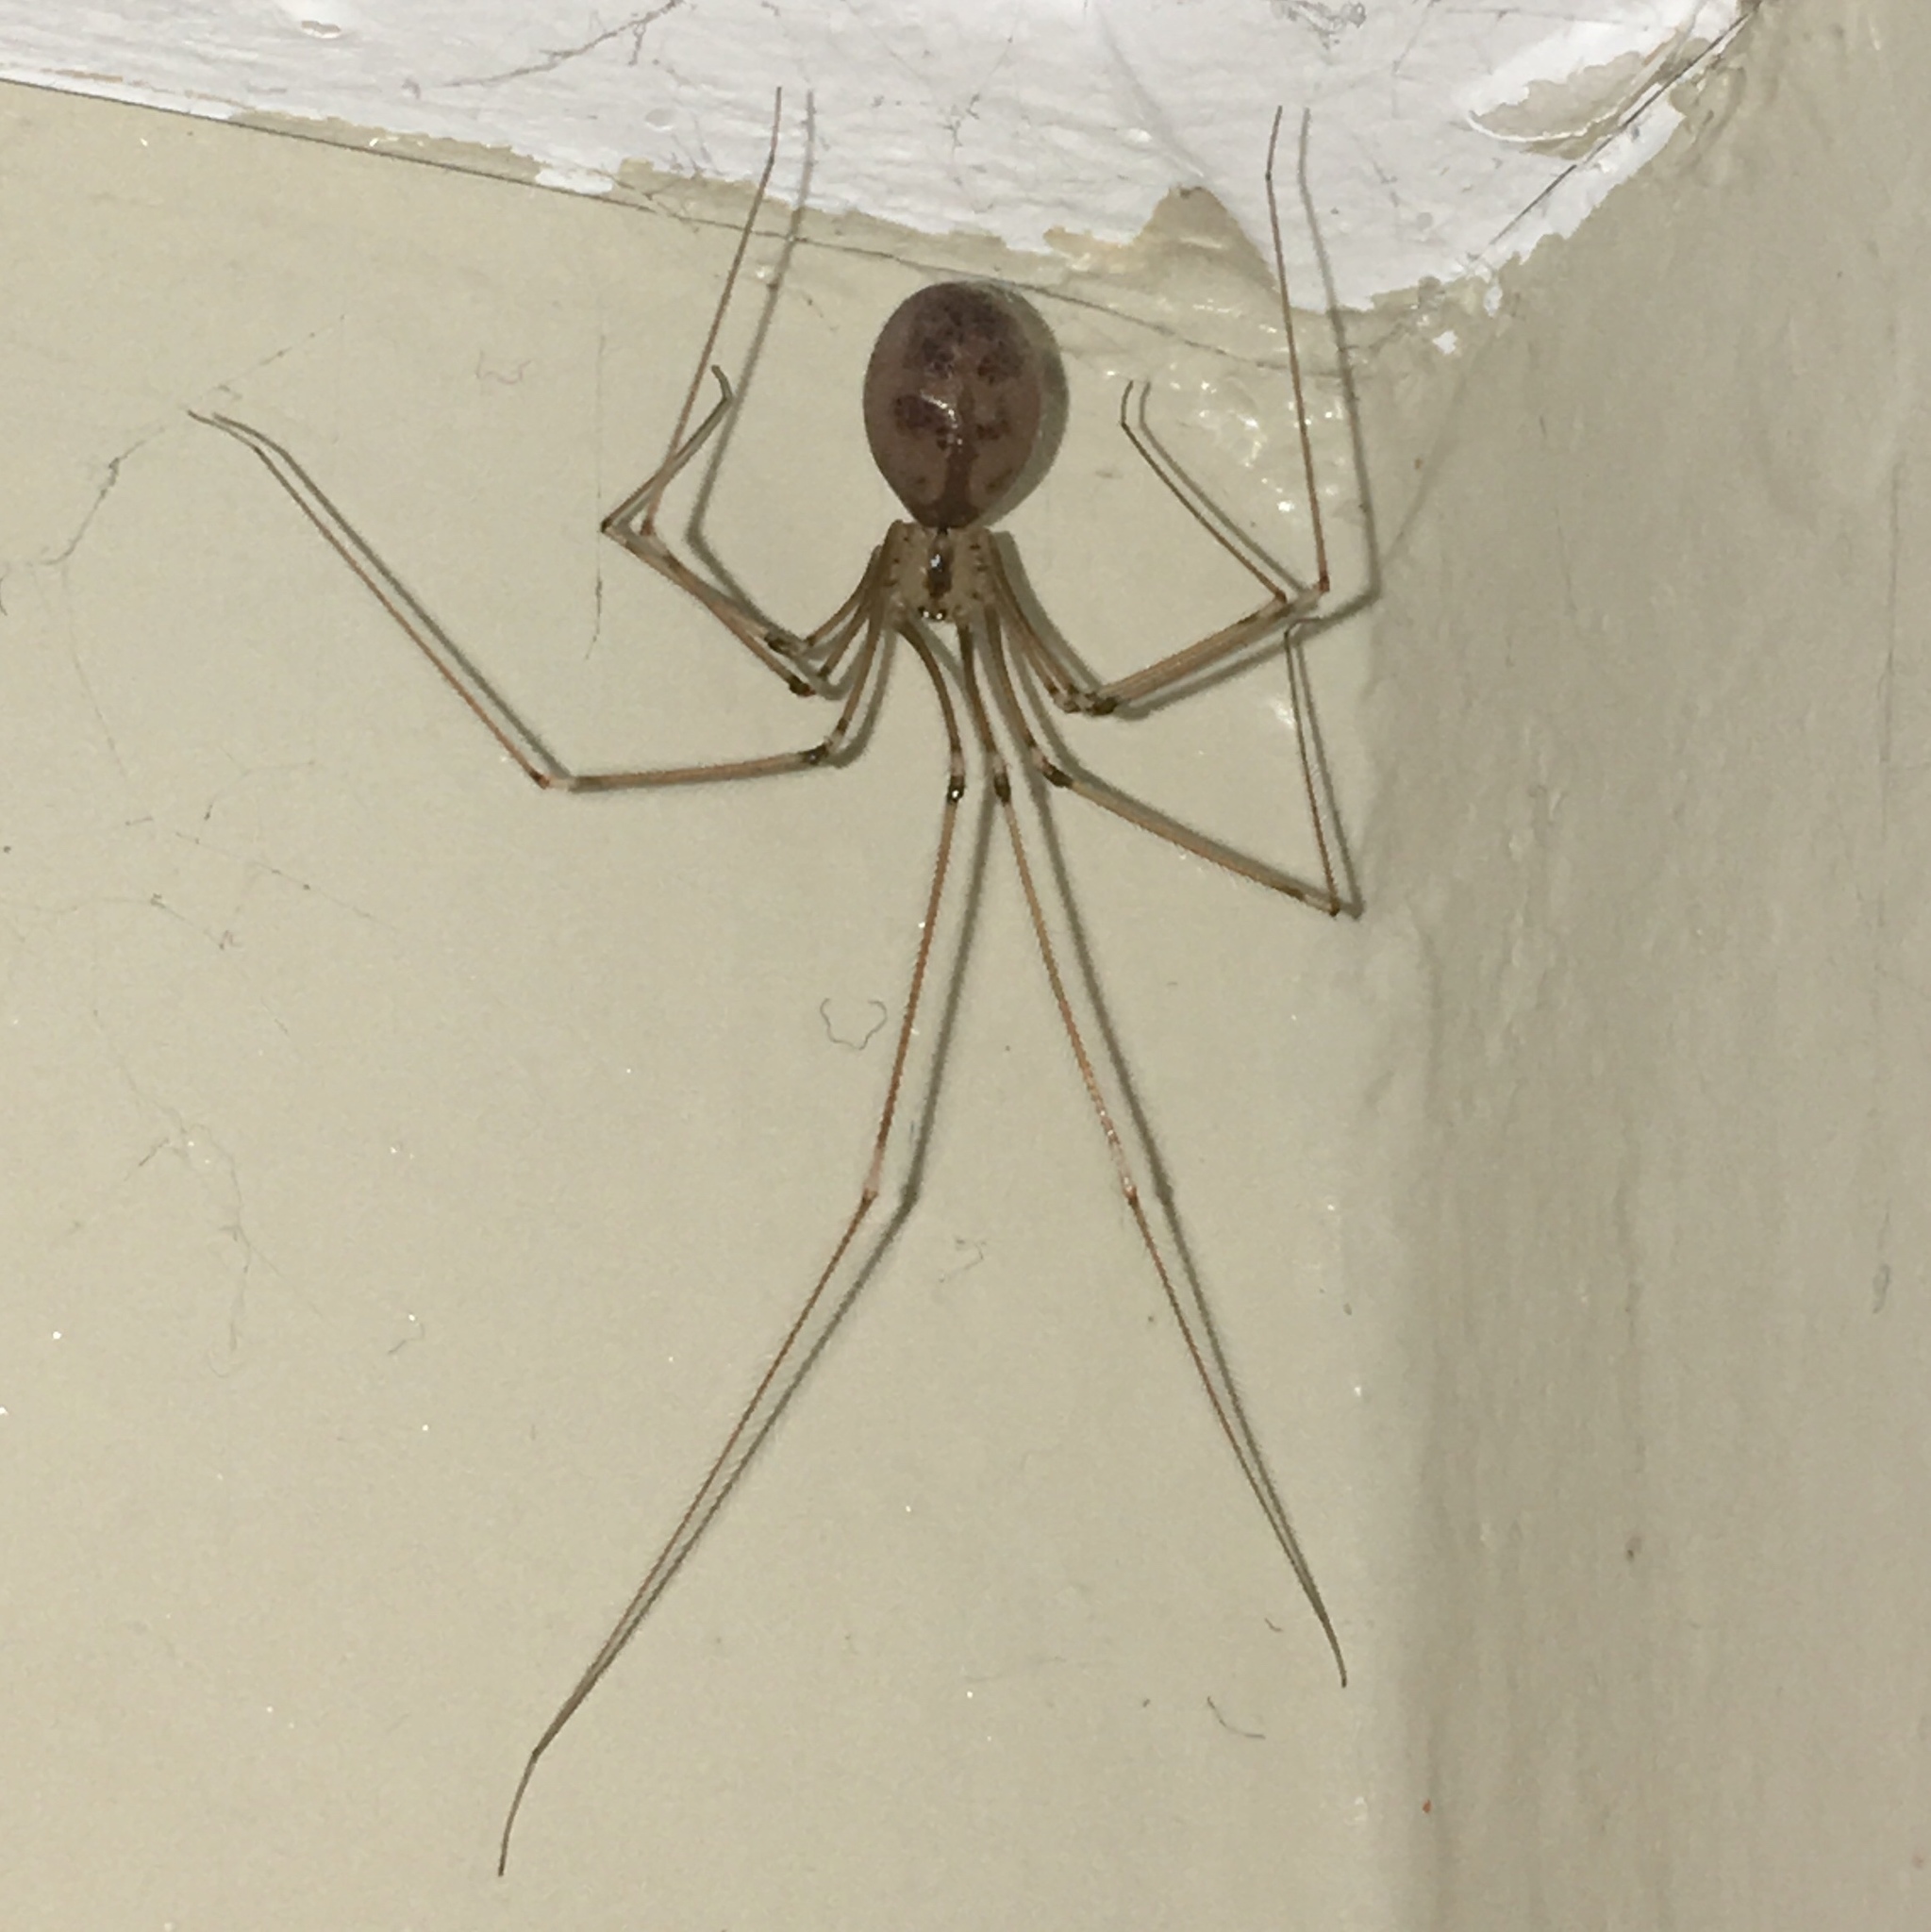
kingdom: Animalia
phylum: Arthropoda
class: Arachnida
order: Araneae
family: Pholcidae
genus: Pholcus
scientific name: Pholcus phalangioides
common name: Longbodied cellar spider
